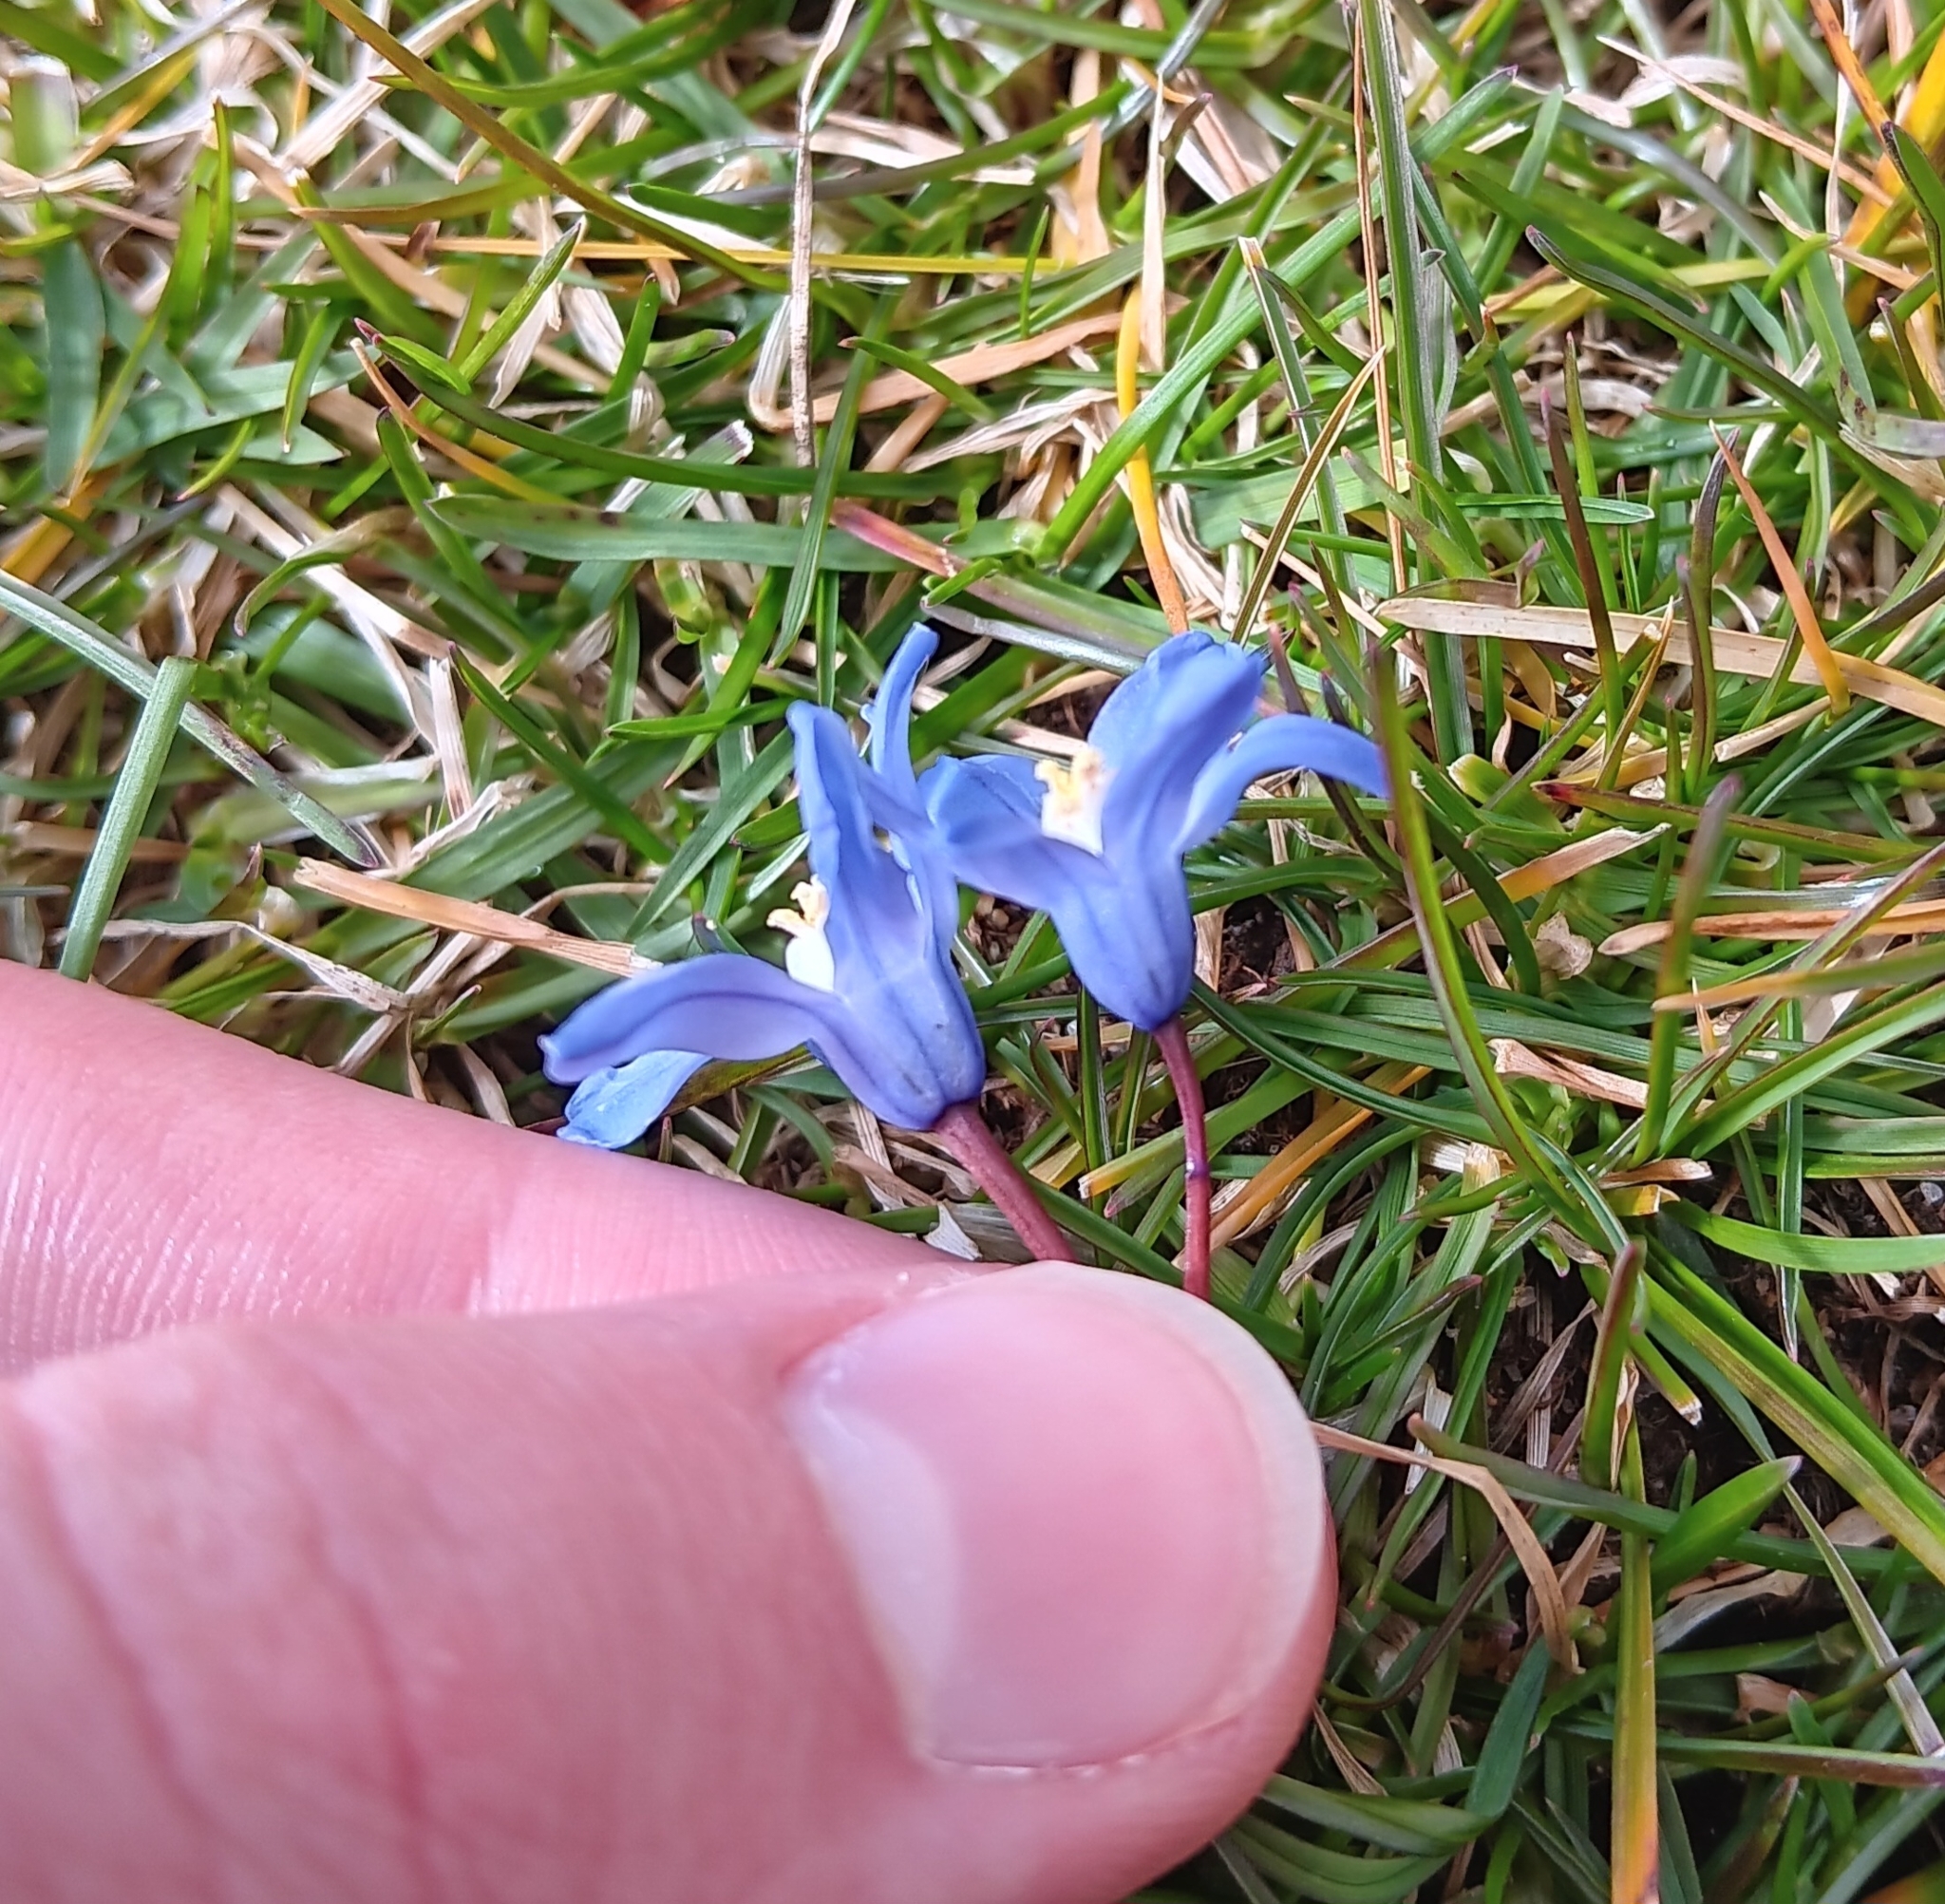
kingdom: Plantae
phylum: Tracheophyta
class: Liliopsida
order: Asparagales
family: Asparagaceae
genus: Scilla
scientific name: Scilla luciliae
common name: Boissier's glory-of-the-snow
